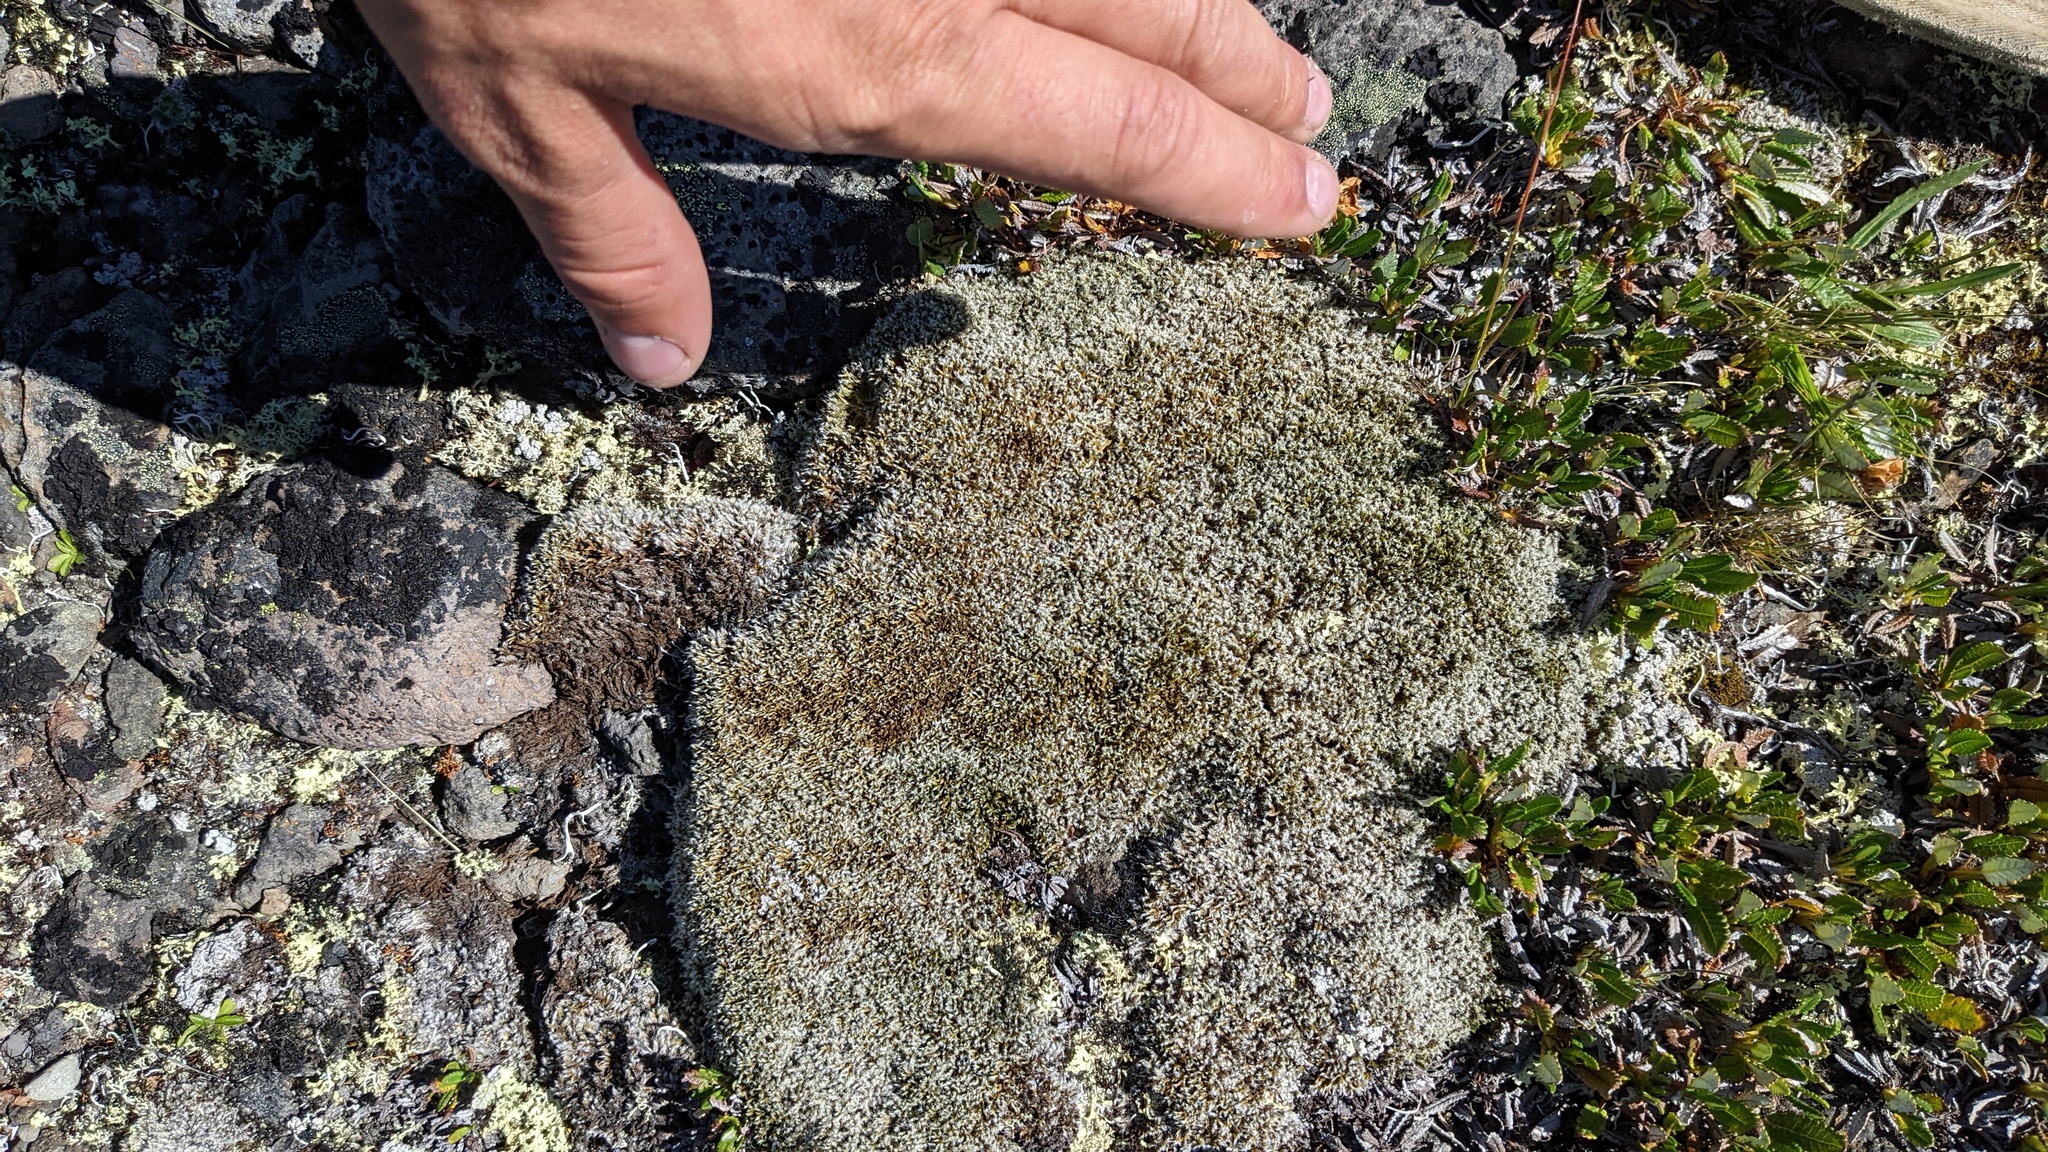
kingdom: Plantae
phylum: Bryophyta
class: Bryopsida
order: Grimmiales
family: Grimmiaceae
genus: Racomitrium
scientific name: Racomitrium lanuginosum
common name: Hoary rock moss
